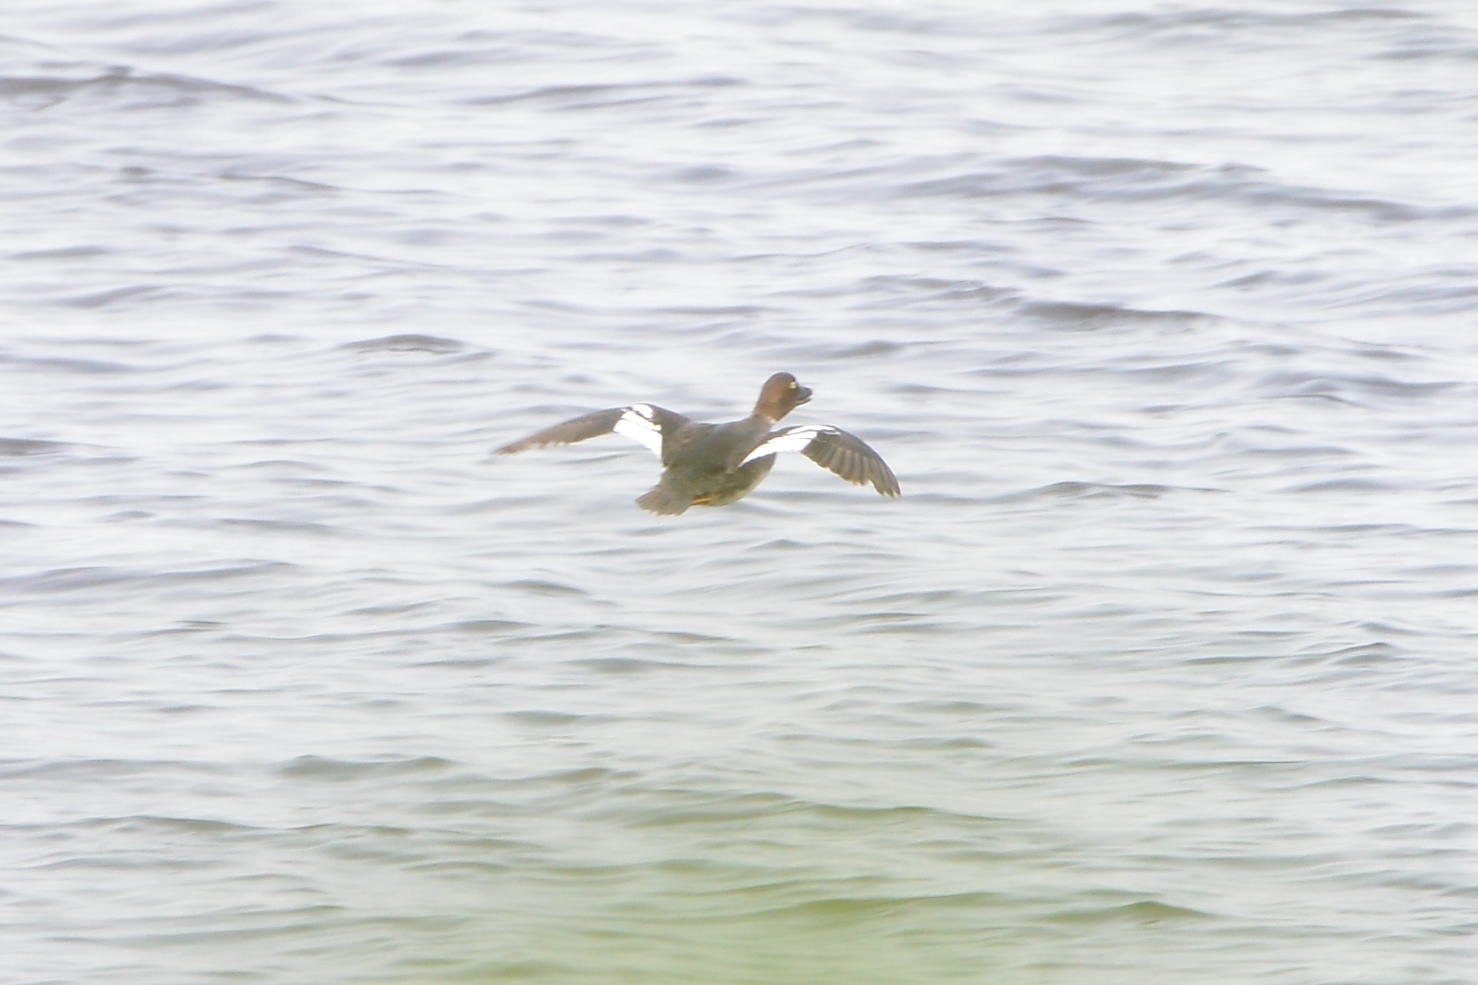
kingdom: Animalia
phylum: Chordata
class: Aves
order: Anseriformes
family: Anatidae
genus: Bucephala
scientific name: Bucephala clangula
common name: Common goldeneye
